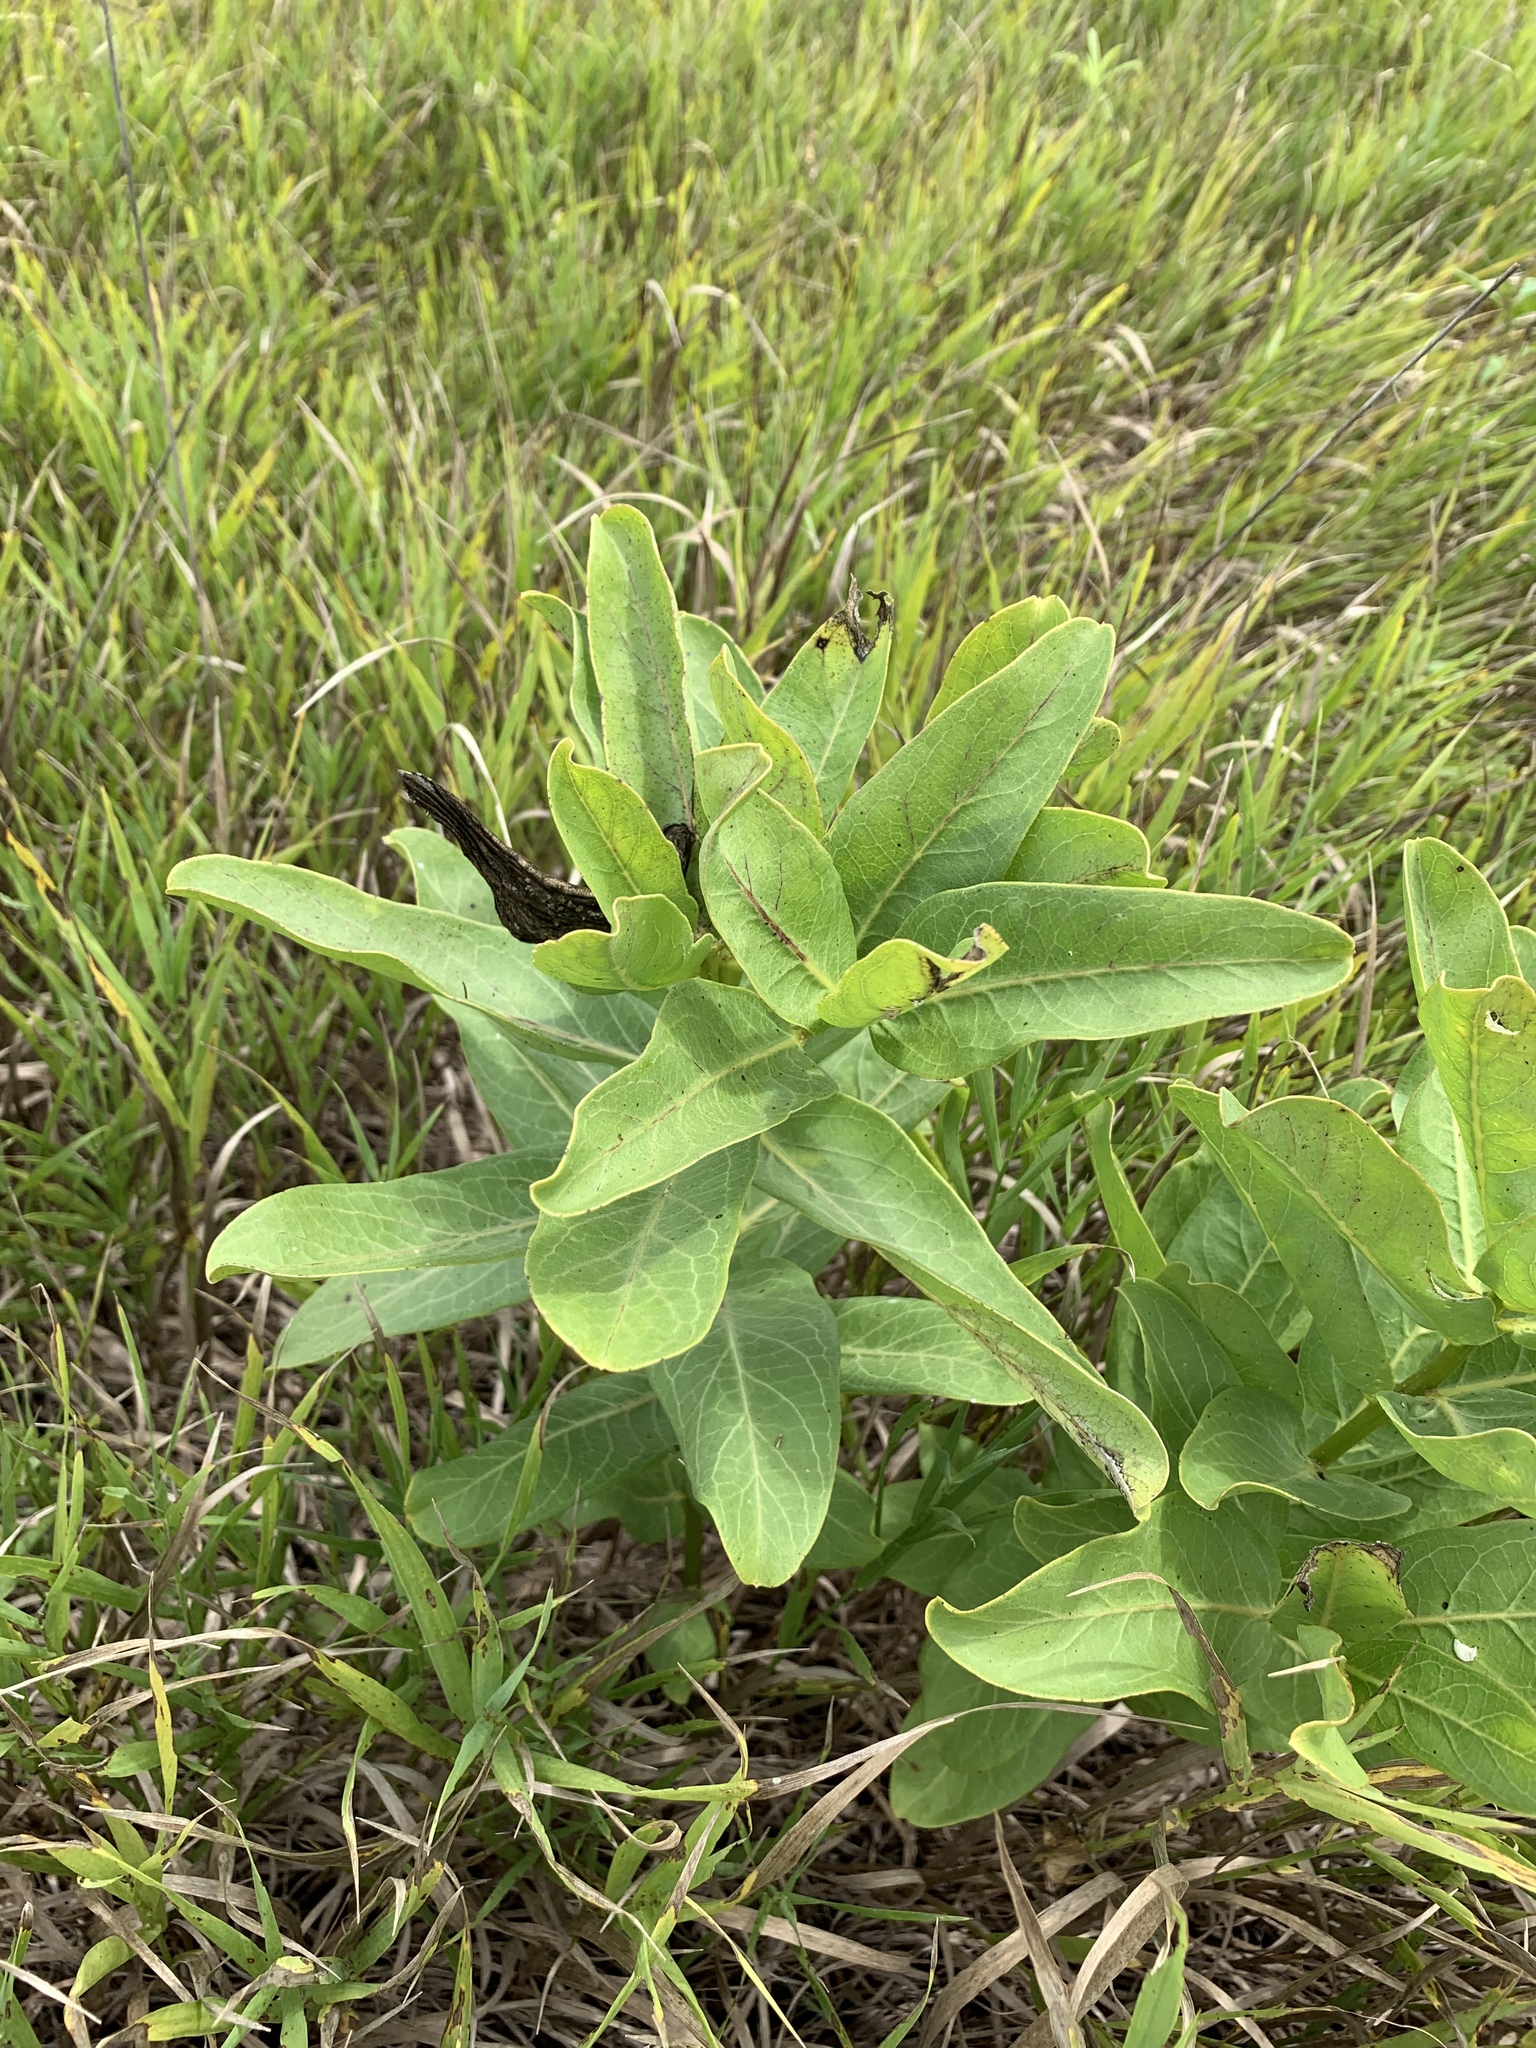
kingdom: Plantae
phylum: Tracheophyta
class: Magnoliopsida
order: Gentianales
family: Apocynaceae
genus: Asclepias
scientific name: Asclepias viridis
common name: Antelope-horns
